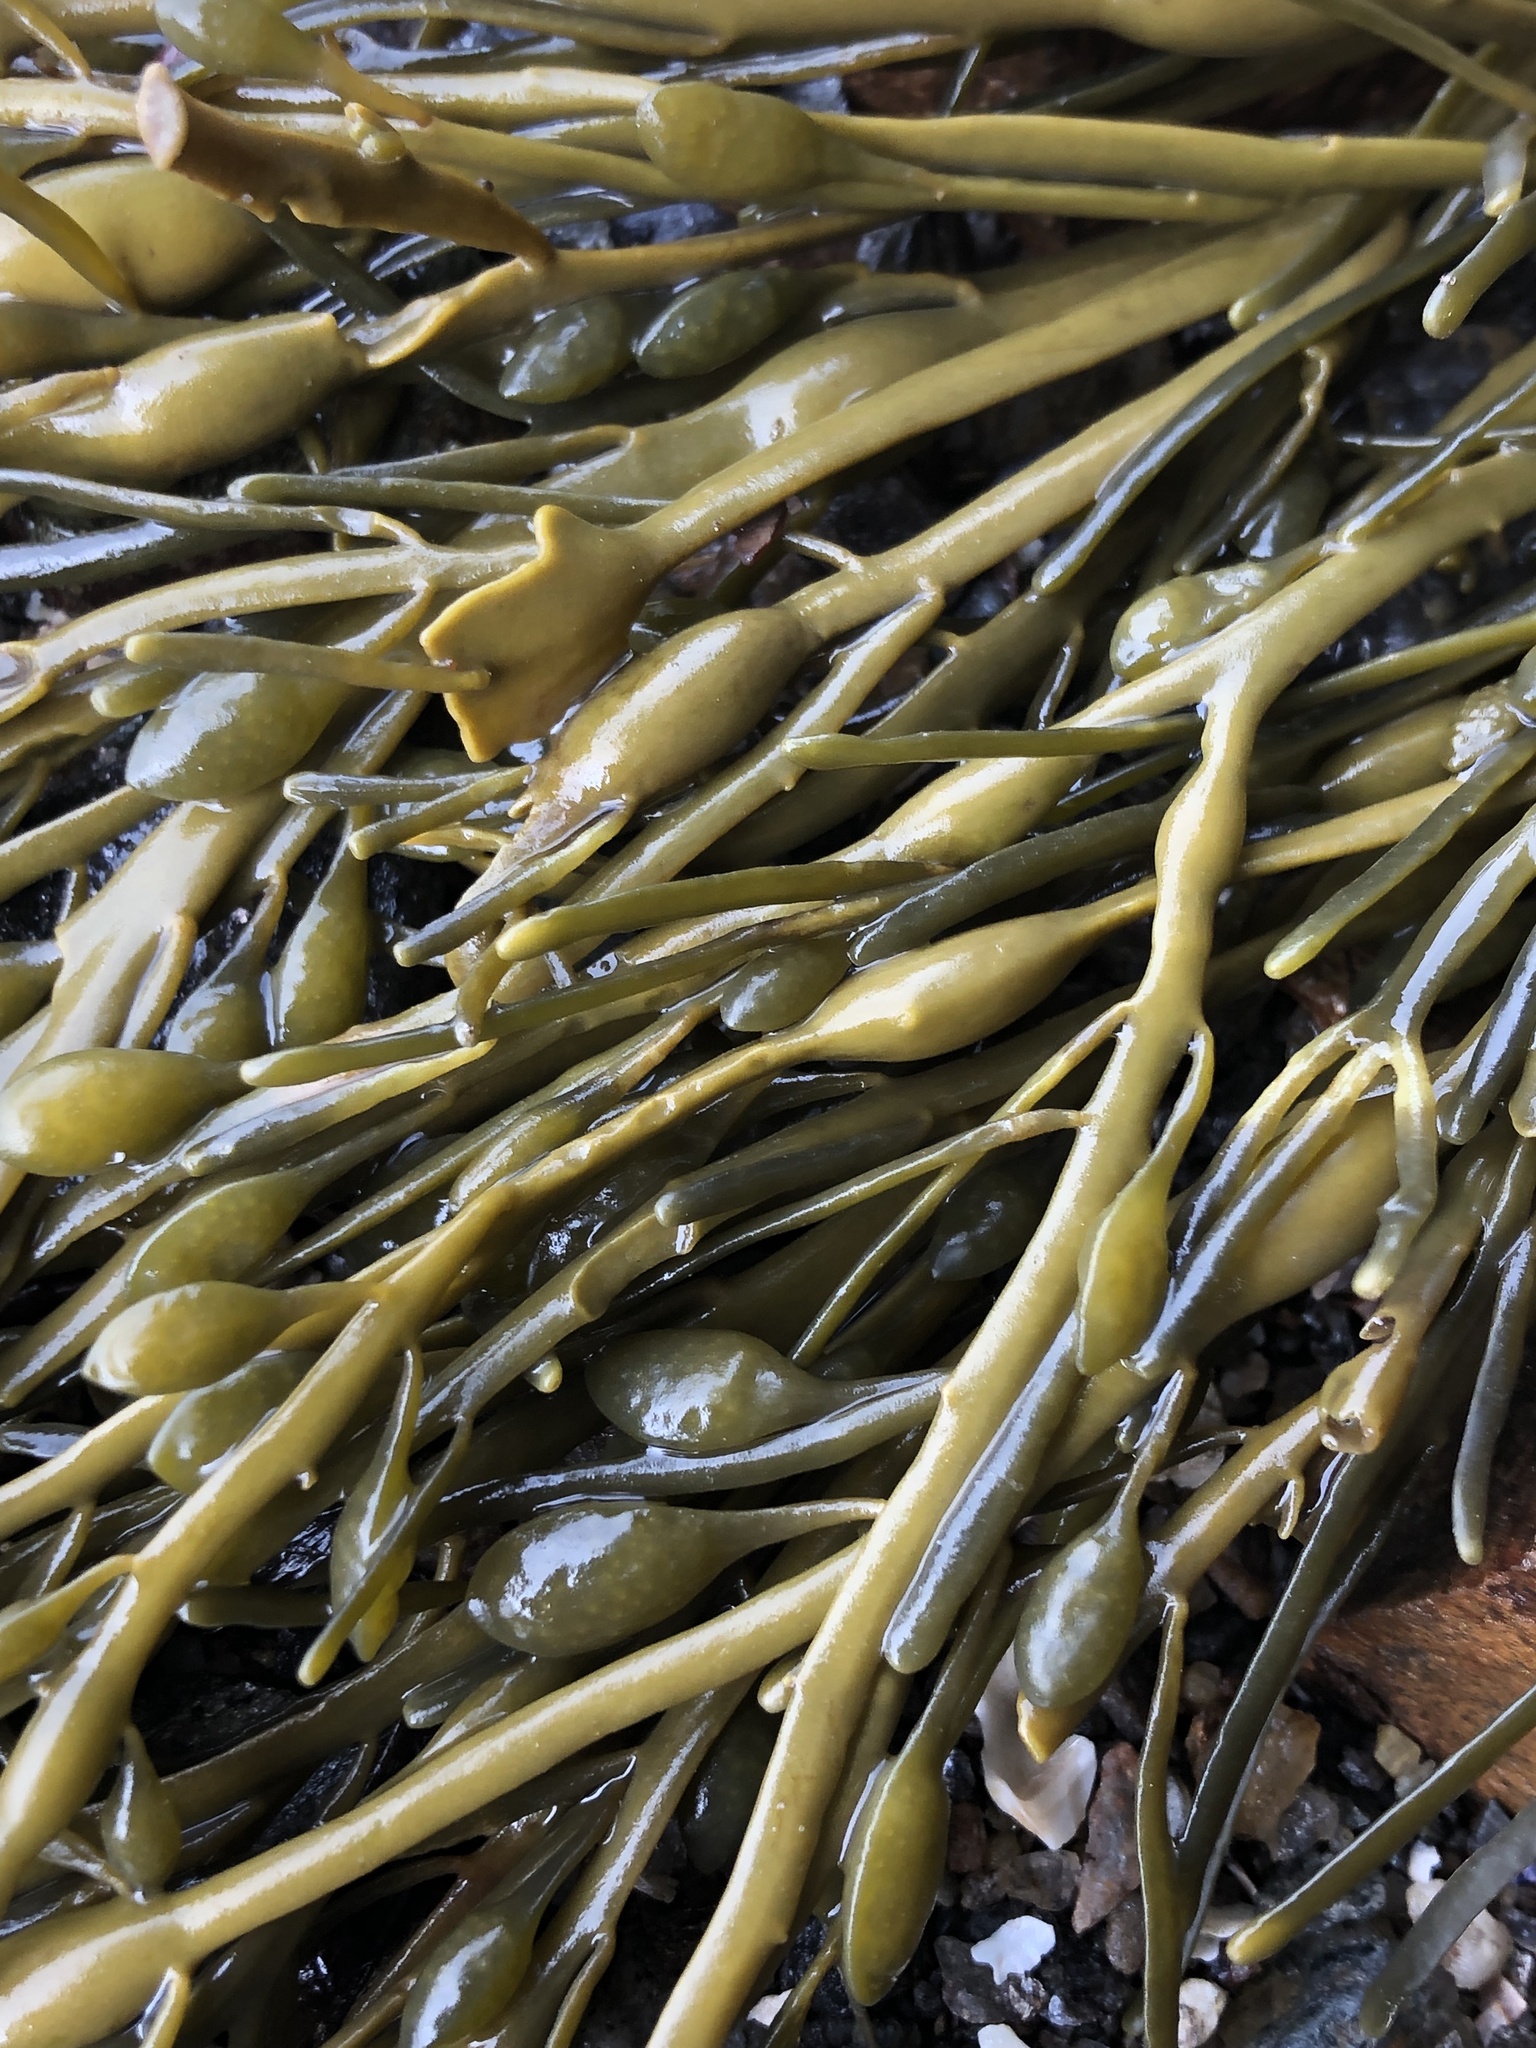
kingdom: Chromista
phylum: Ochrophyta
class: Phaeophyceae
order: Fucales
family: Fucaceae
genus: Ascophyllum
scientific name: Ascophyllum nodosum
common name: Knotted wrack
